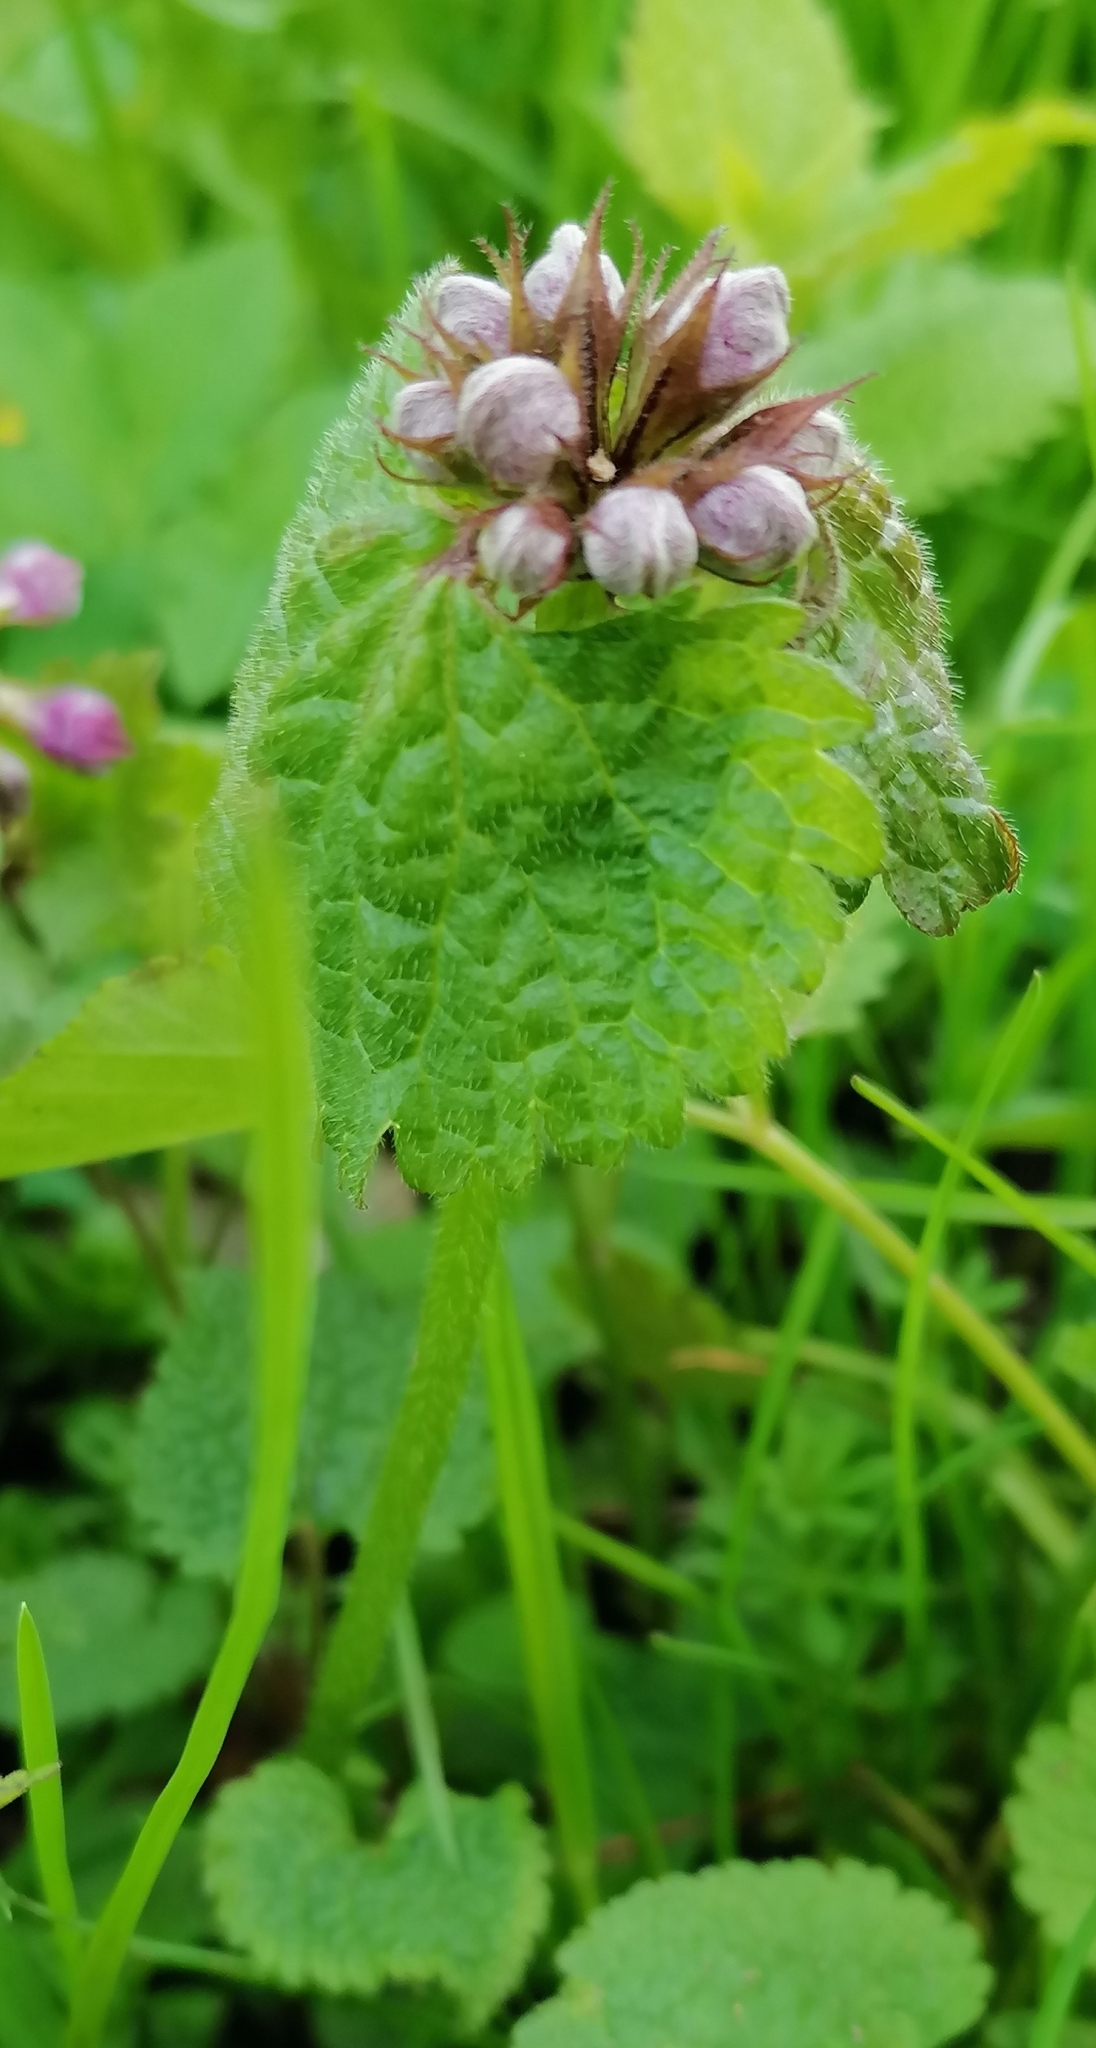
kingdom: Plantae
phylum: Tracheophyta
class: Magnoliopsida
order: Lamiales
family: Lamiaceae
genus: Lamium
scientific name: Lamium purpureum
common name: Red dead-nettle
